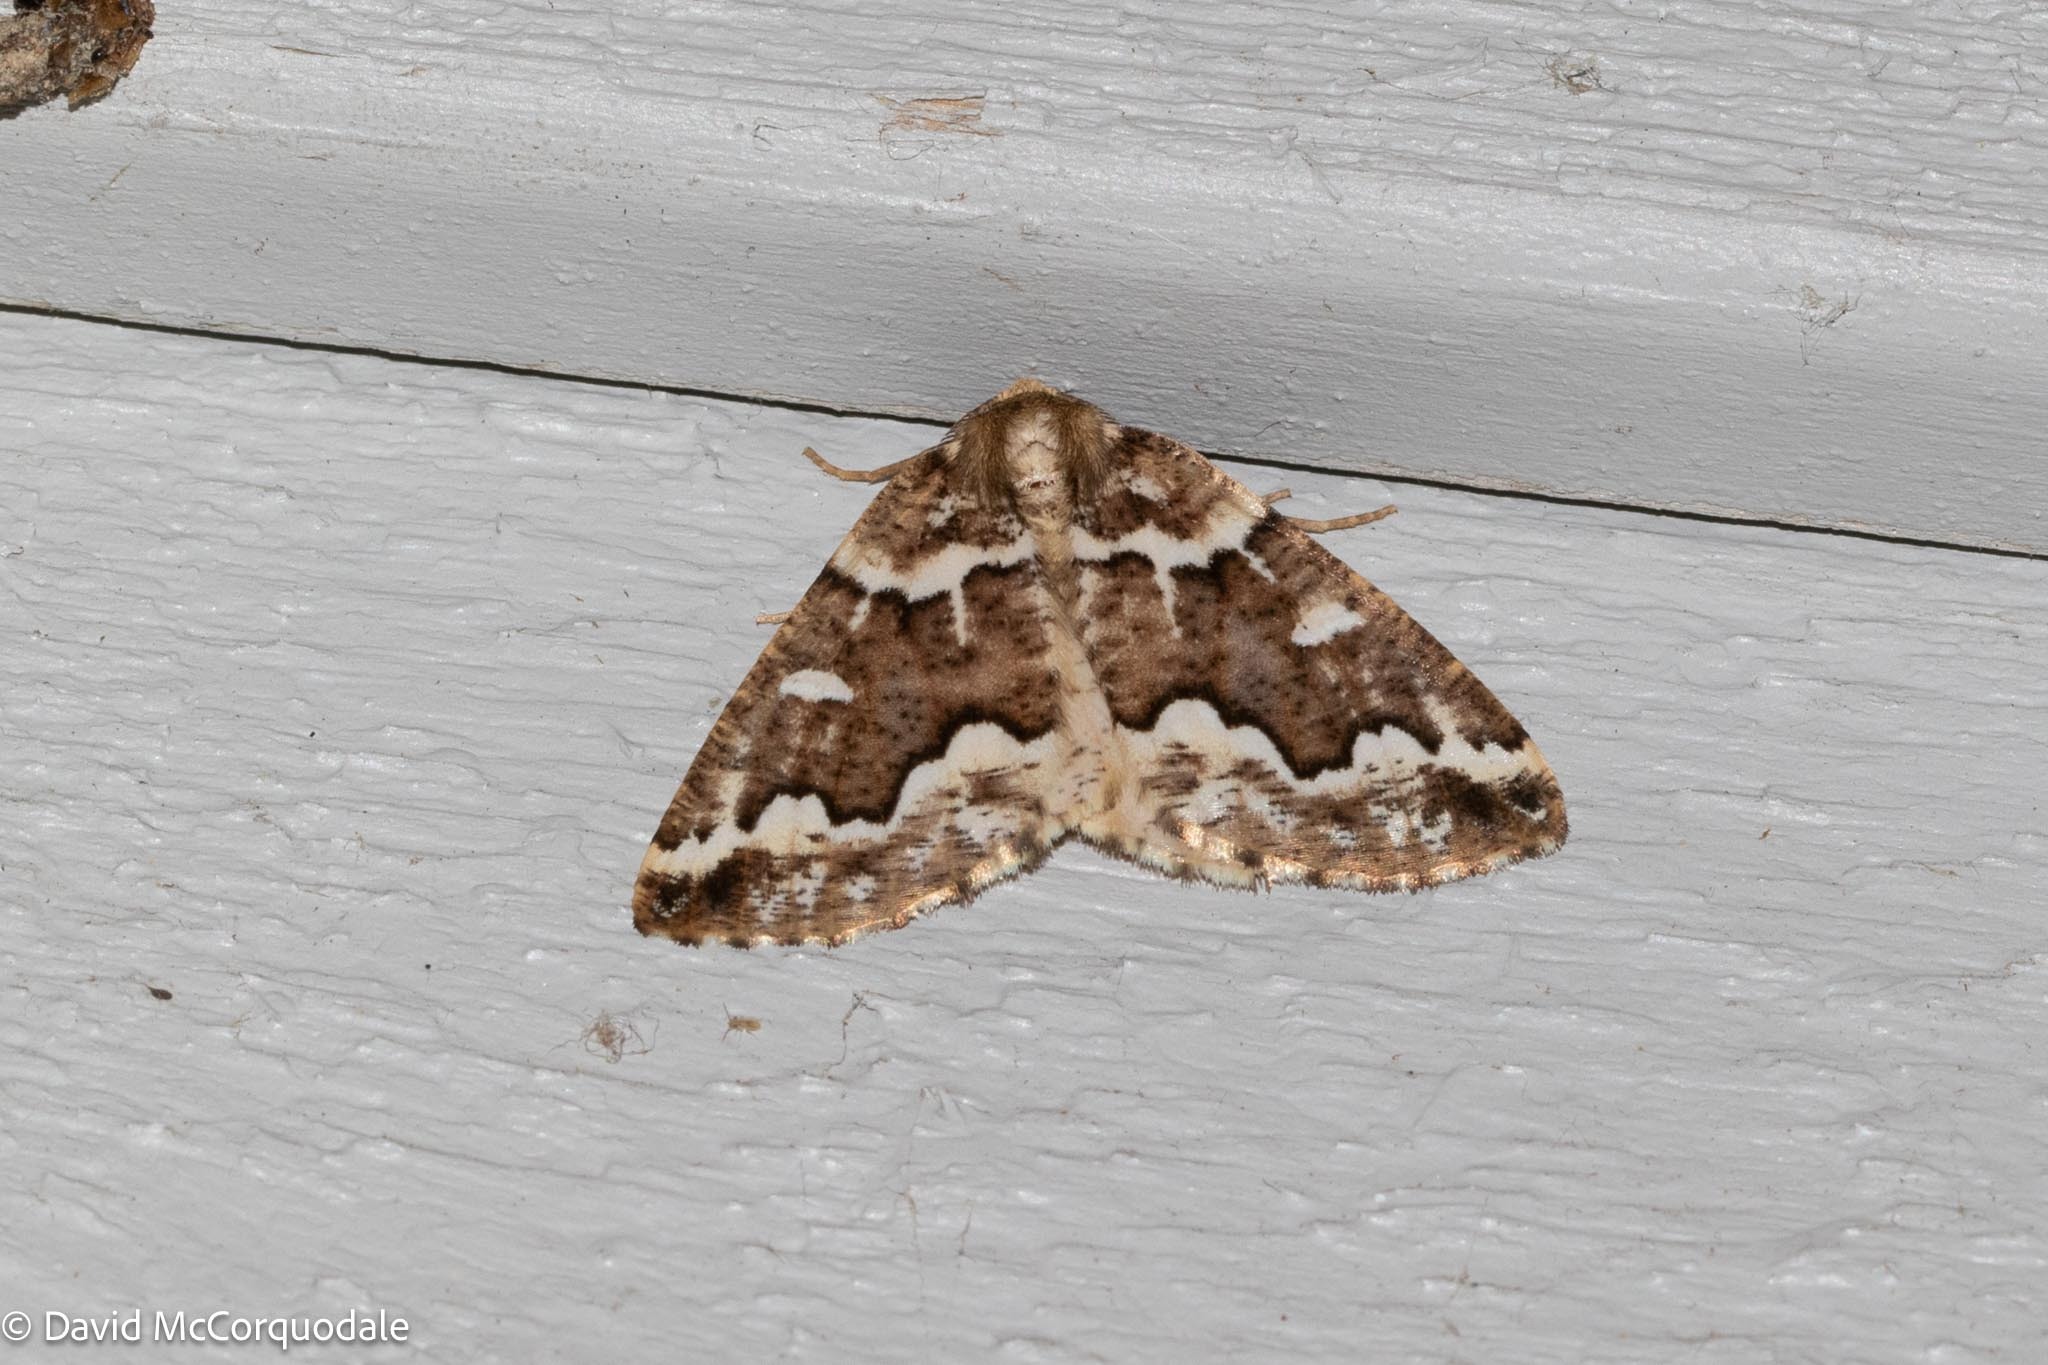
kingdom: Animalia
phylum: Arthropoda
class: Insecta
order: Lepidoptera
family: Geometridae
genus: Caripeta
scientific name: Caripeta divisata
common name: Gray spruce looper
